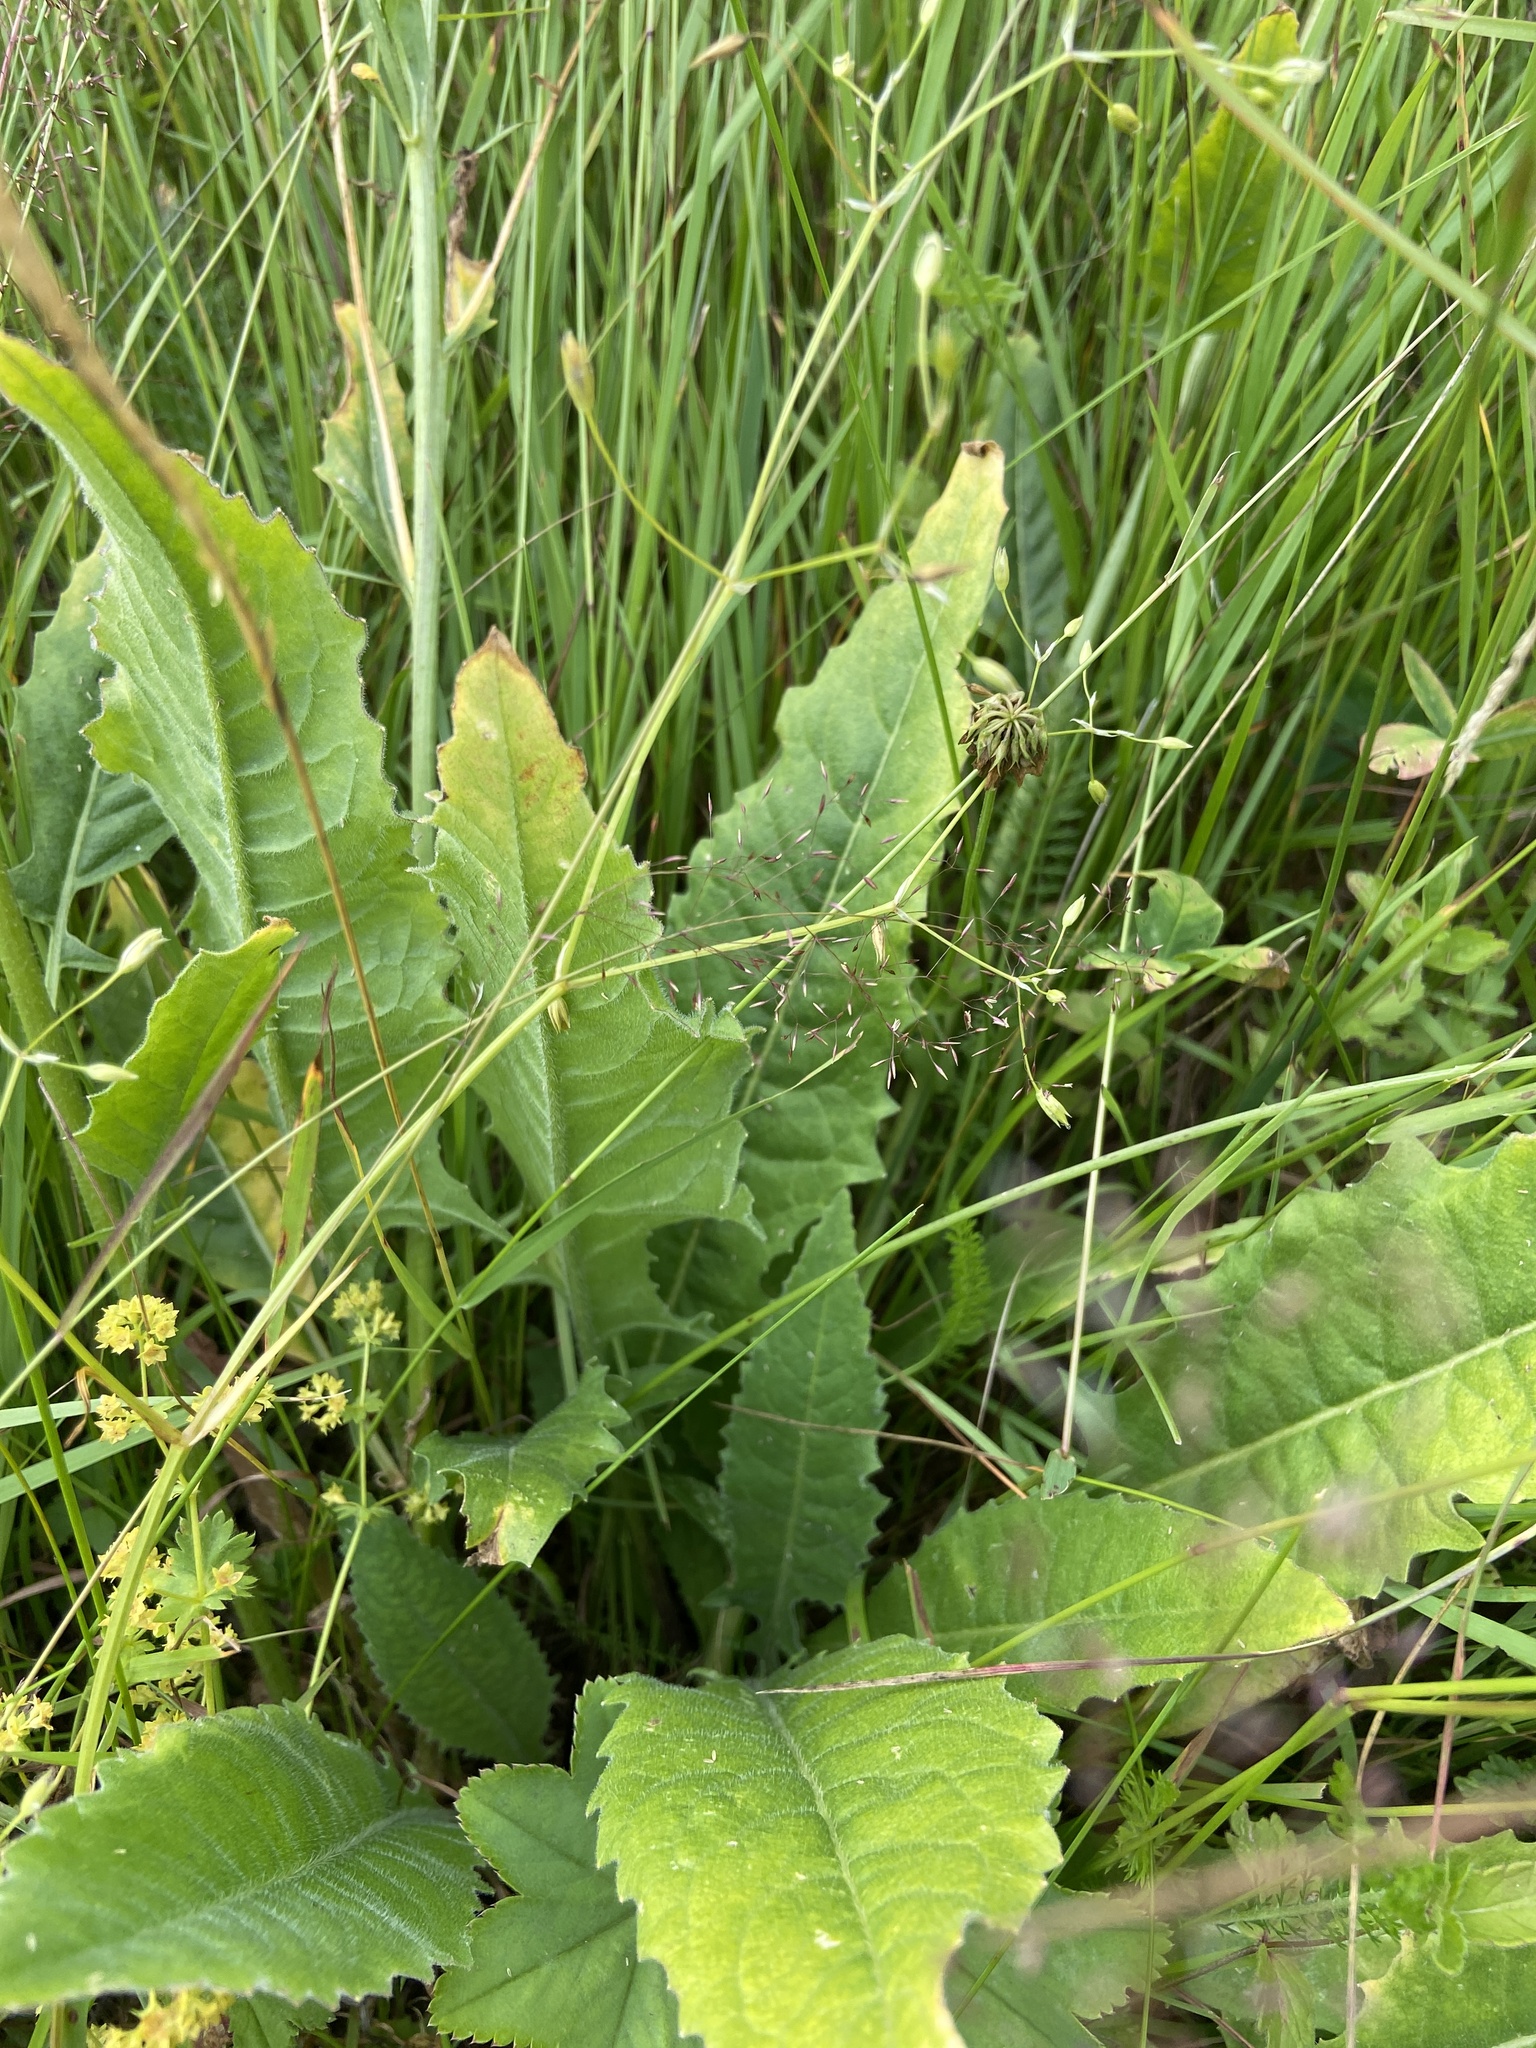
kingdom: Plantae
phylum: Tracheophyta
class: Magnoliopsida
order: Brassicales
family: Brassicaceae
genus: Bunias
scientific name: Bunias orientalis
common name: Warty-cabbage
